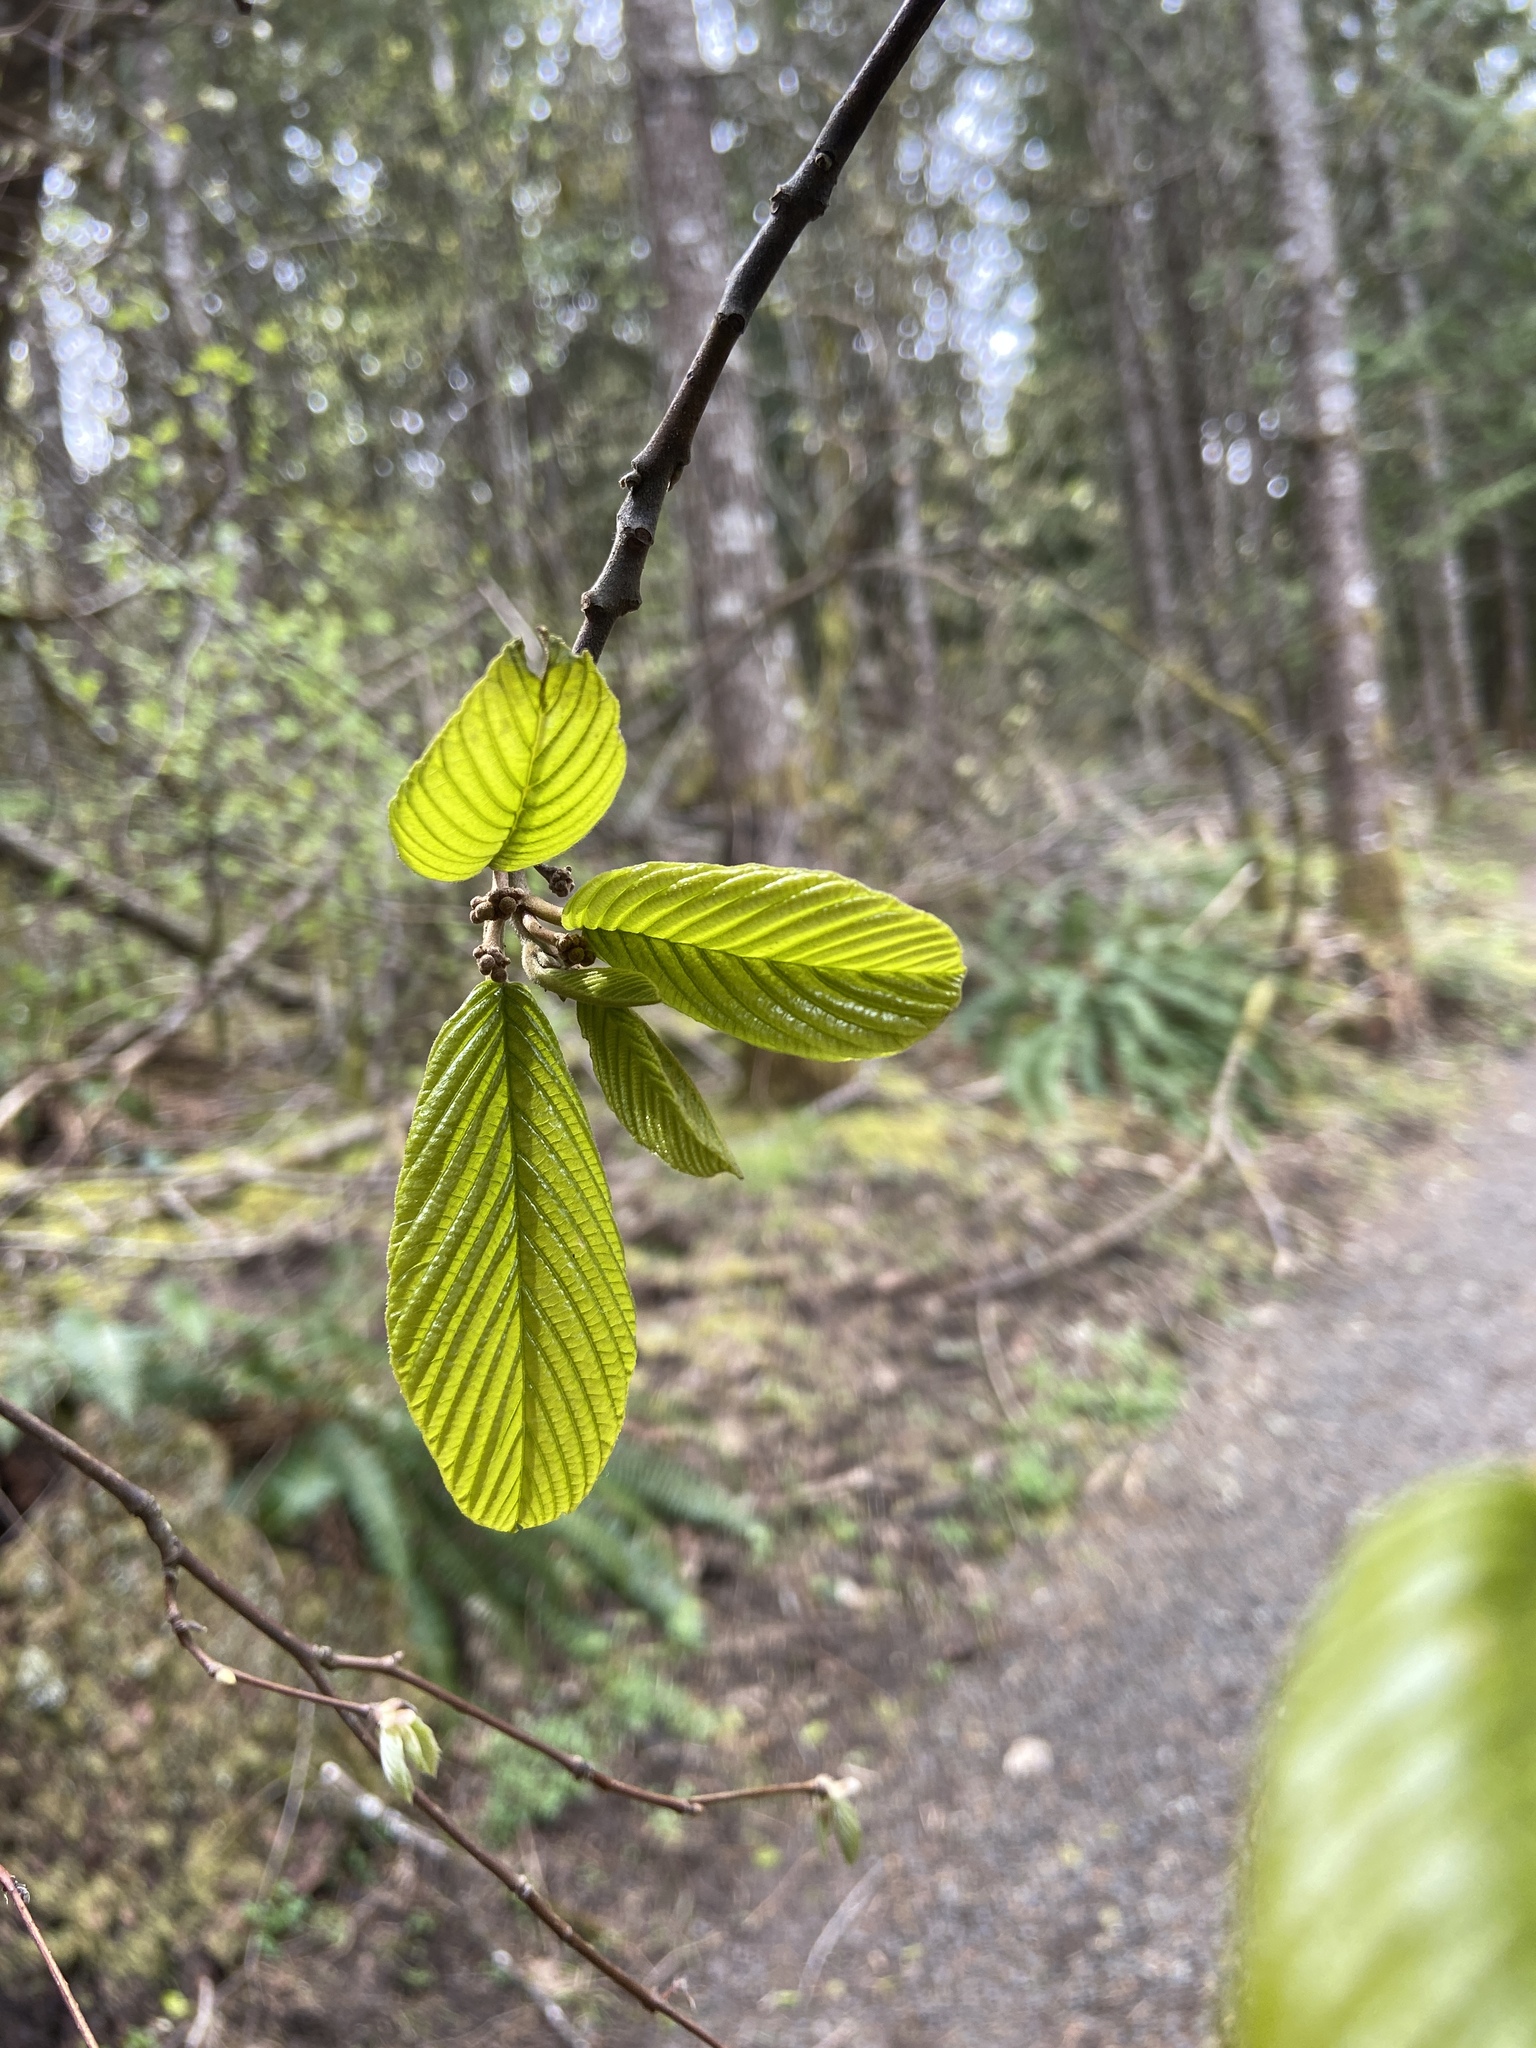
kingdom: Plantae
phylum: Tracheophyta
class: Magnoliopsida
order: Rosales
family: Rhamnaceae
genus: Frangula
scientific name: Frangula purshiana
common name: Cascara buckthorn
